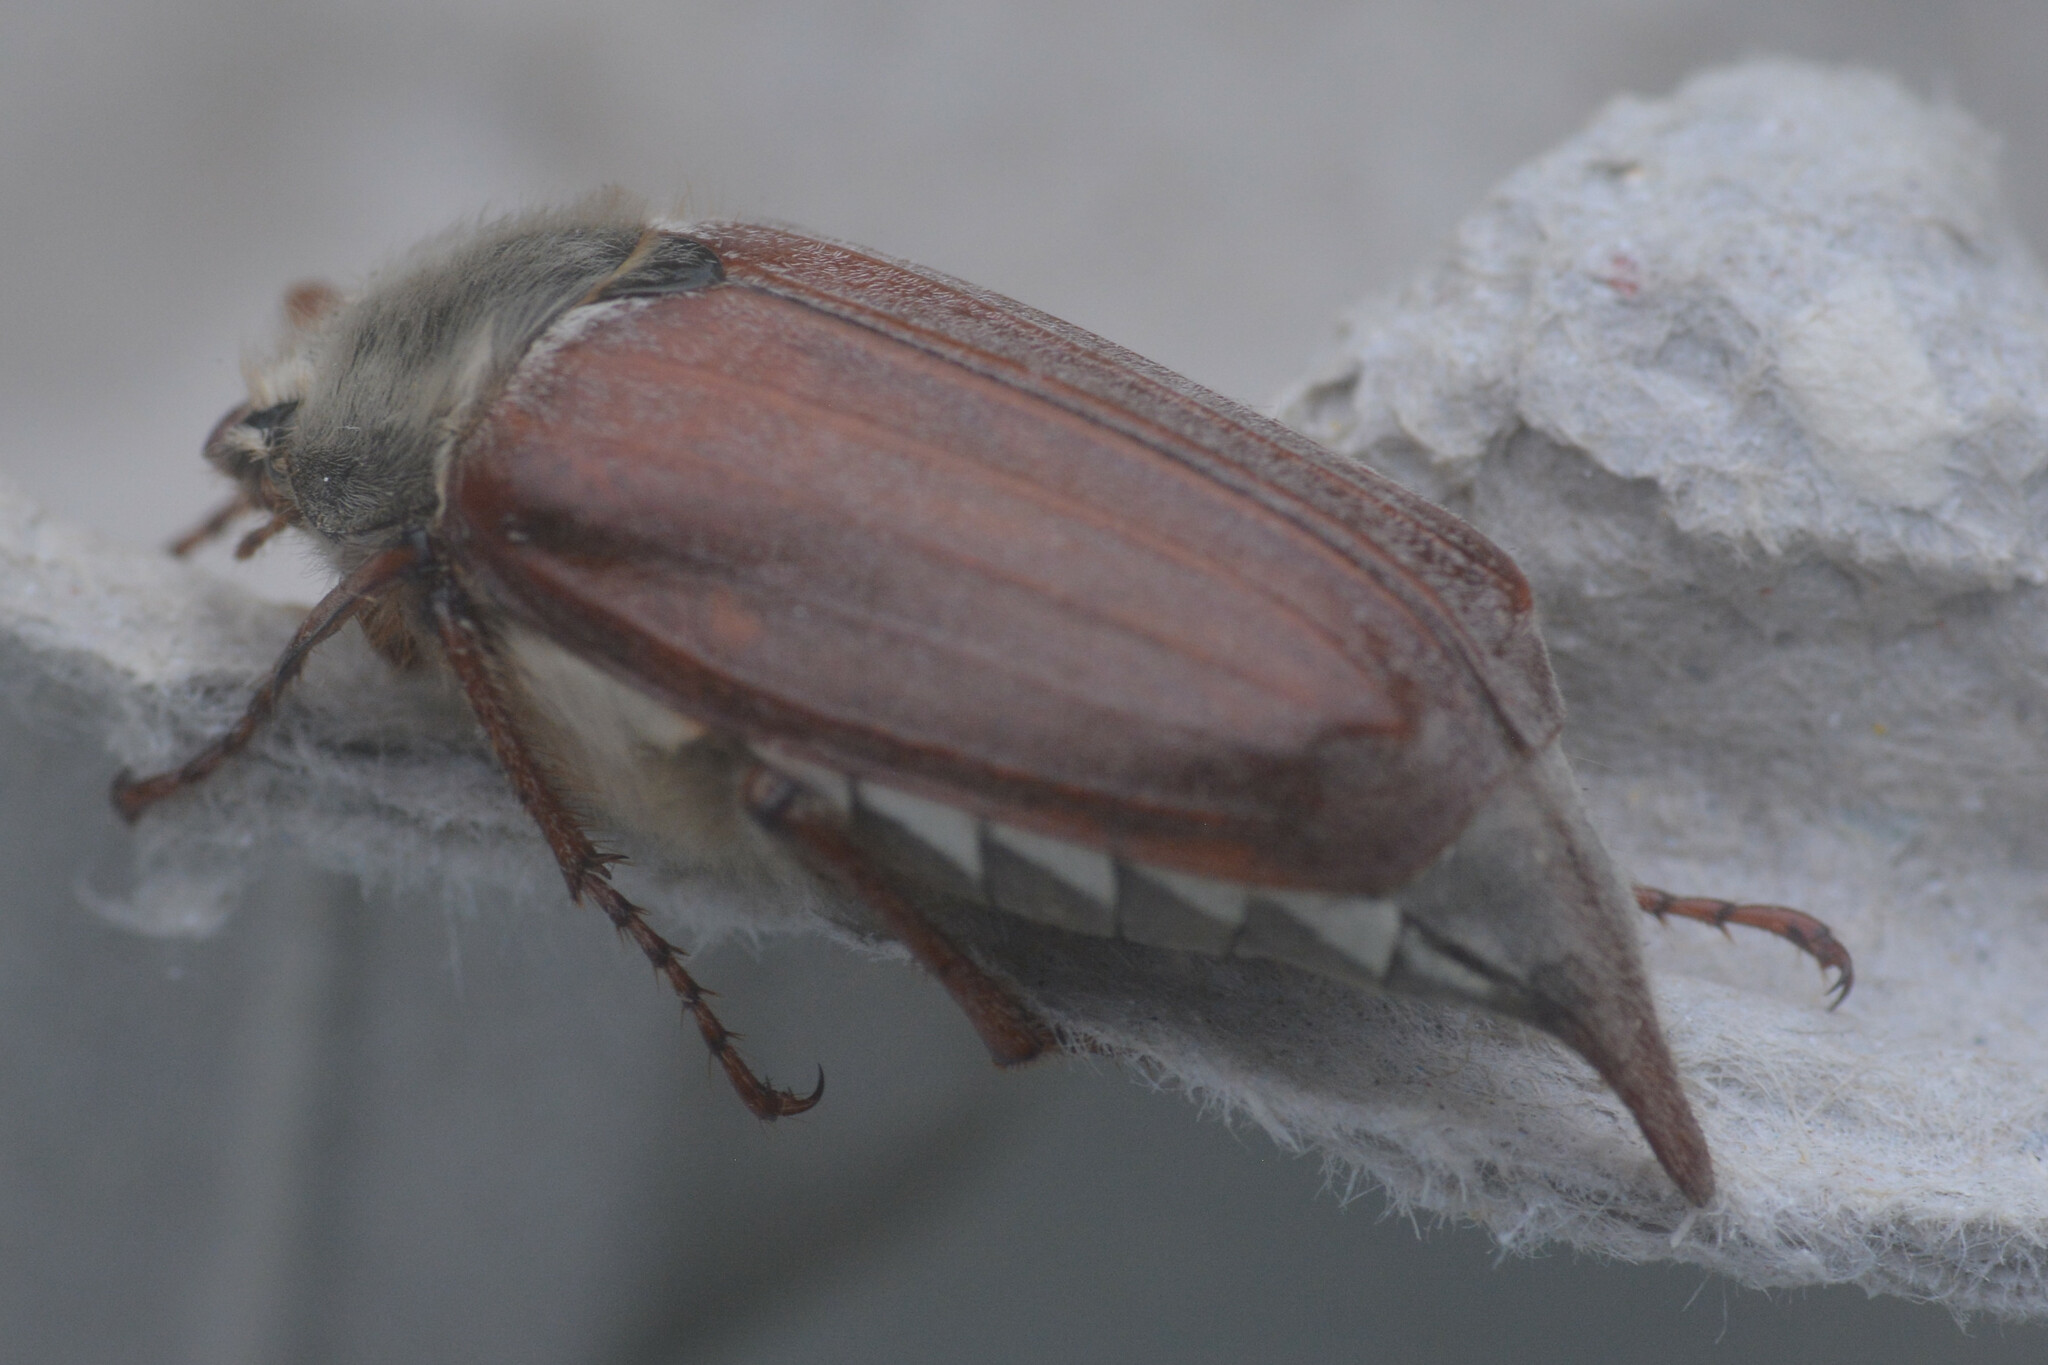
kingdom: Animalia
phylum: Arthropoda
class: Insecta
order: Coleoptera
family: Scarabaeidae
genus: Melolontha
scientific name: Melolontha melolontha
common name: Cockchafer maybeetle
